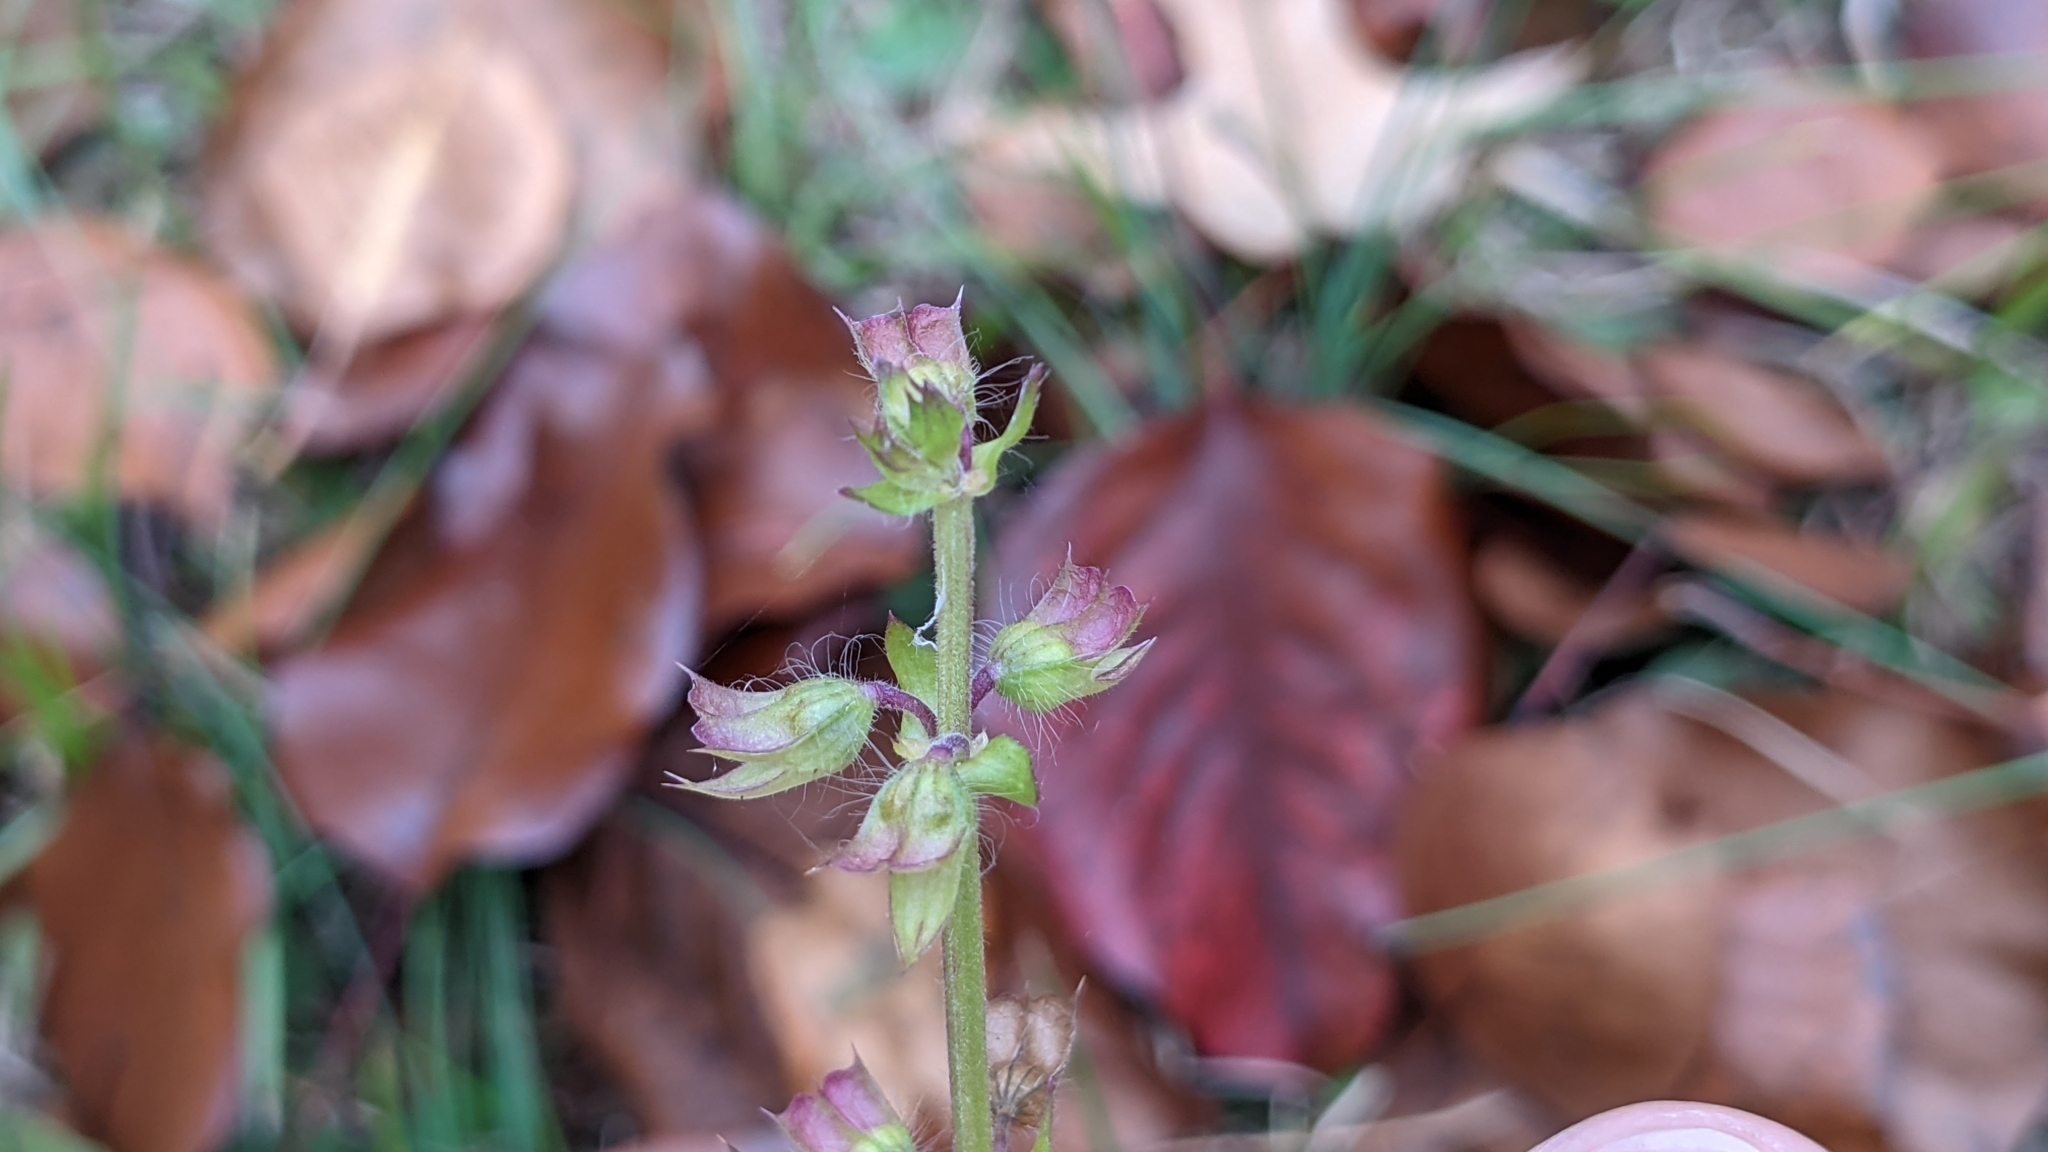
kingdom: Plantae
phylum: Tracheophyta
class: Magnoliopsida
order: Lamiales
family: Lamiaceae
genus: Salvia
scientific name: Salvia lyrata
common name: Cancerweed
